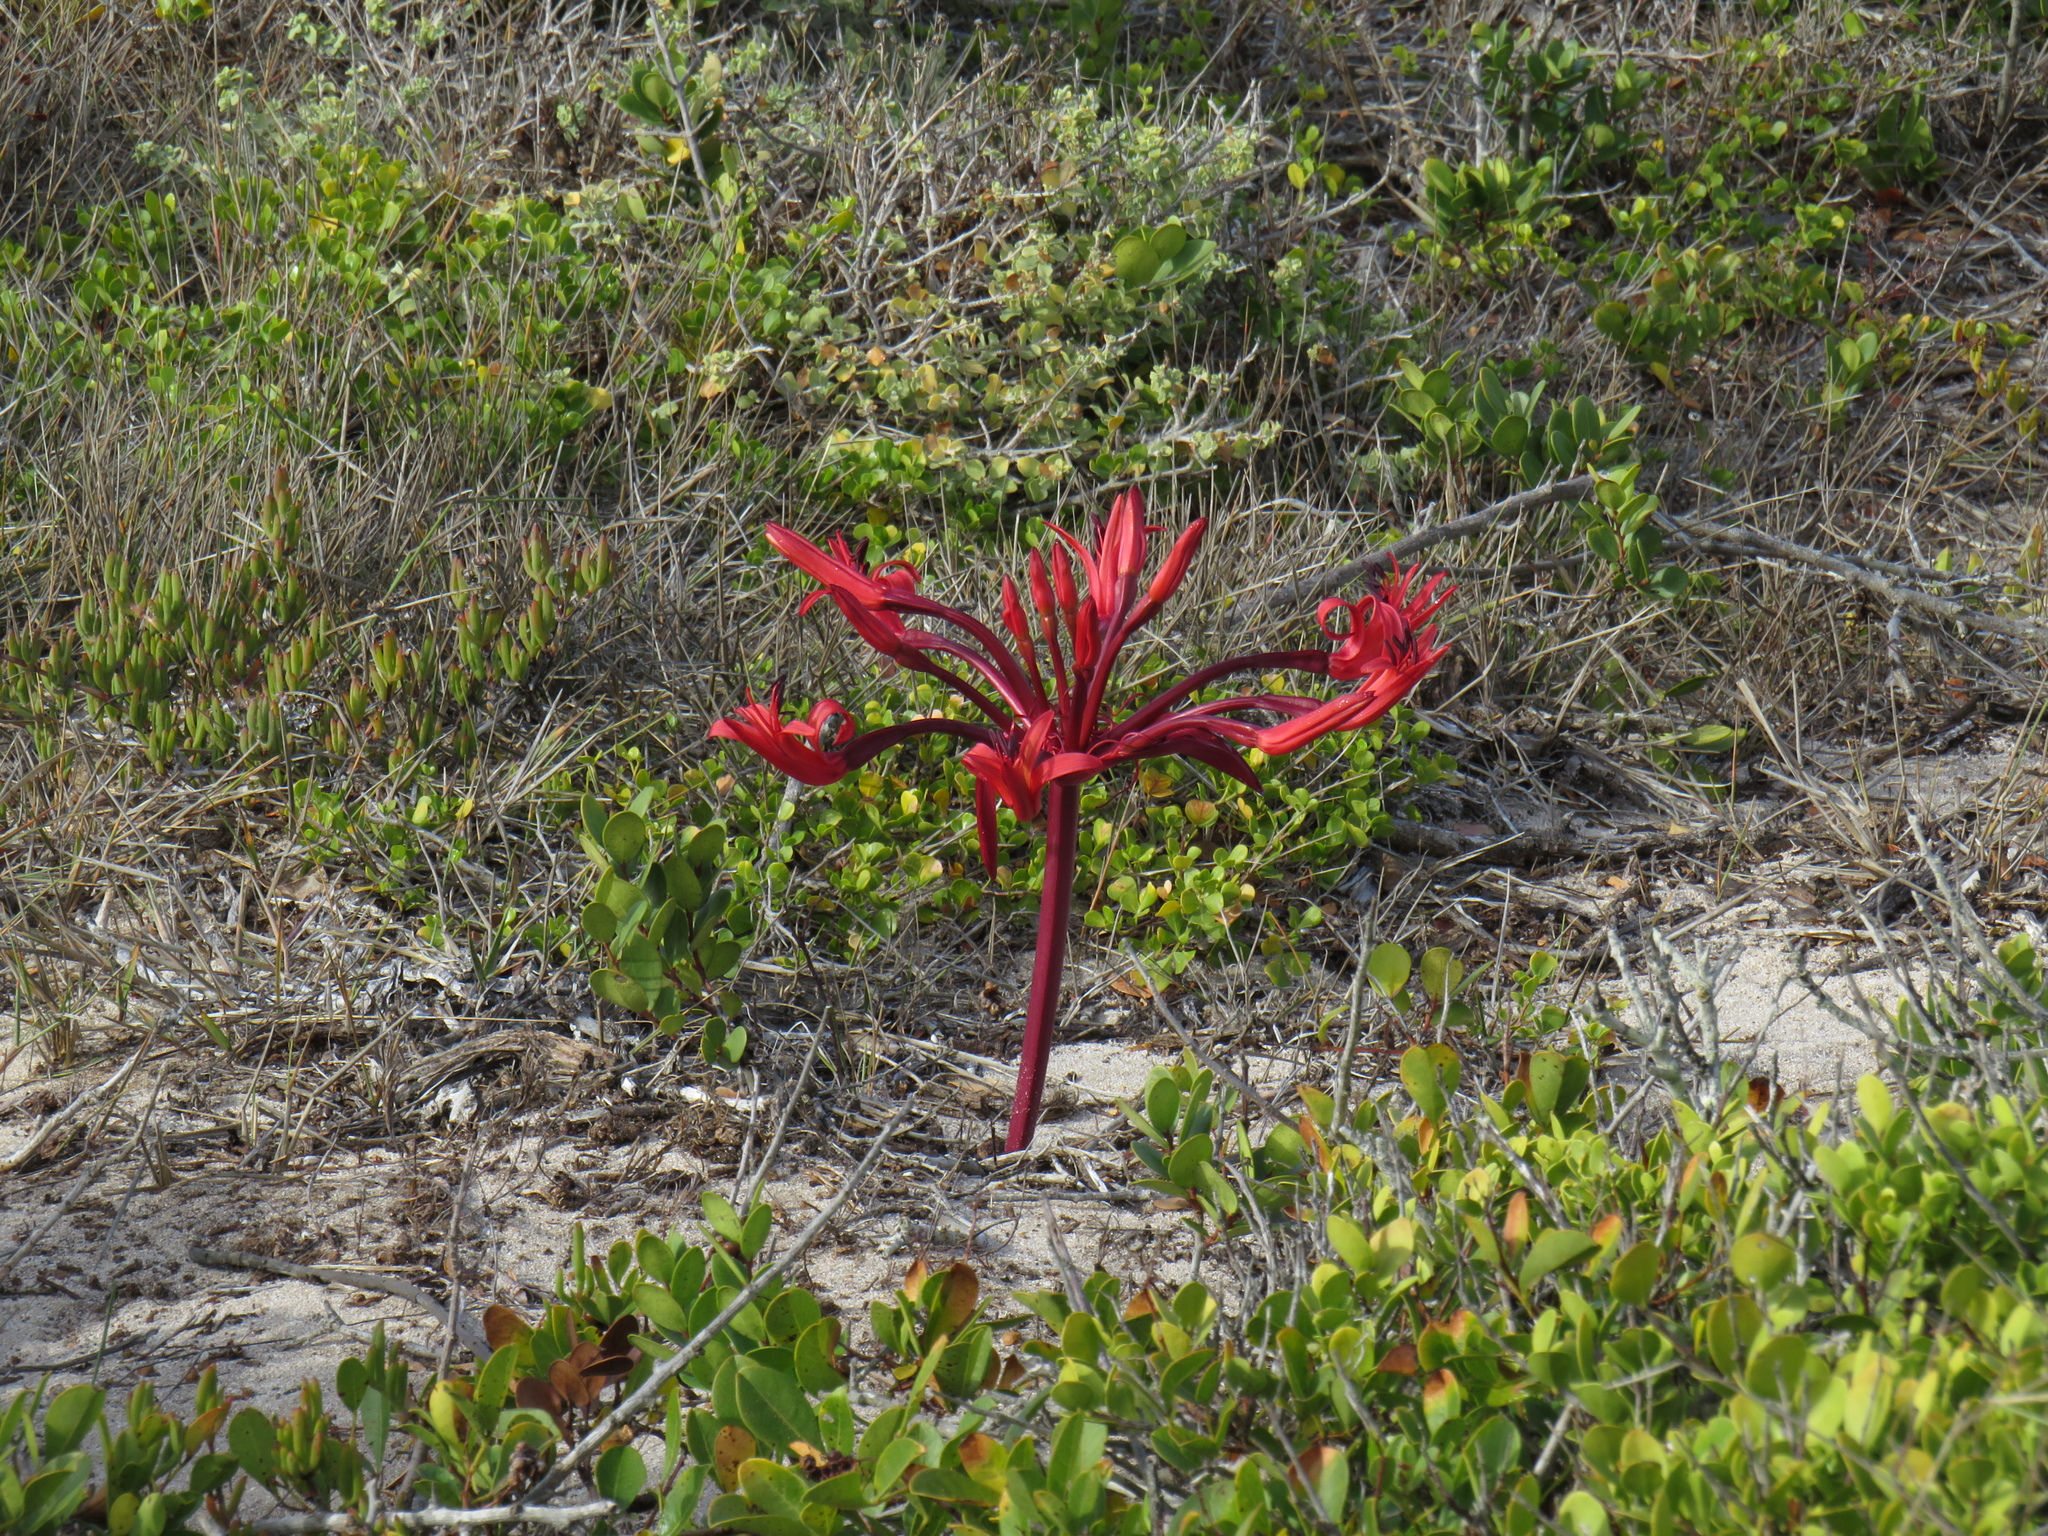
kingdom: Plantae
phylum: Tracheophyta
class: Liliopsida
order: Asparagales
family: Amaryllidaceae
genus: Brunsvigia
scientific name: Brunsvigia orientalis
